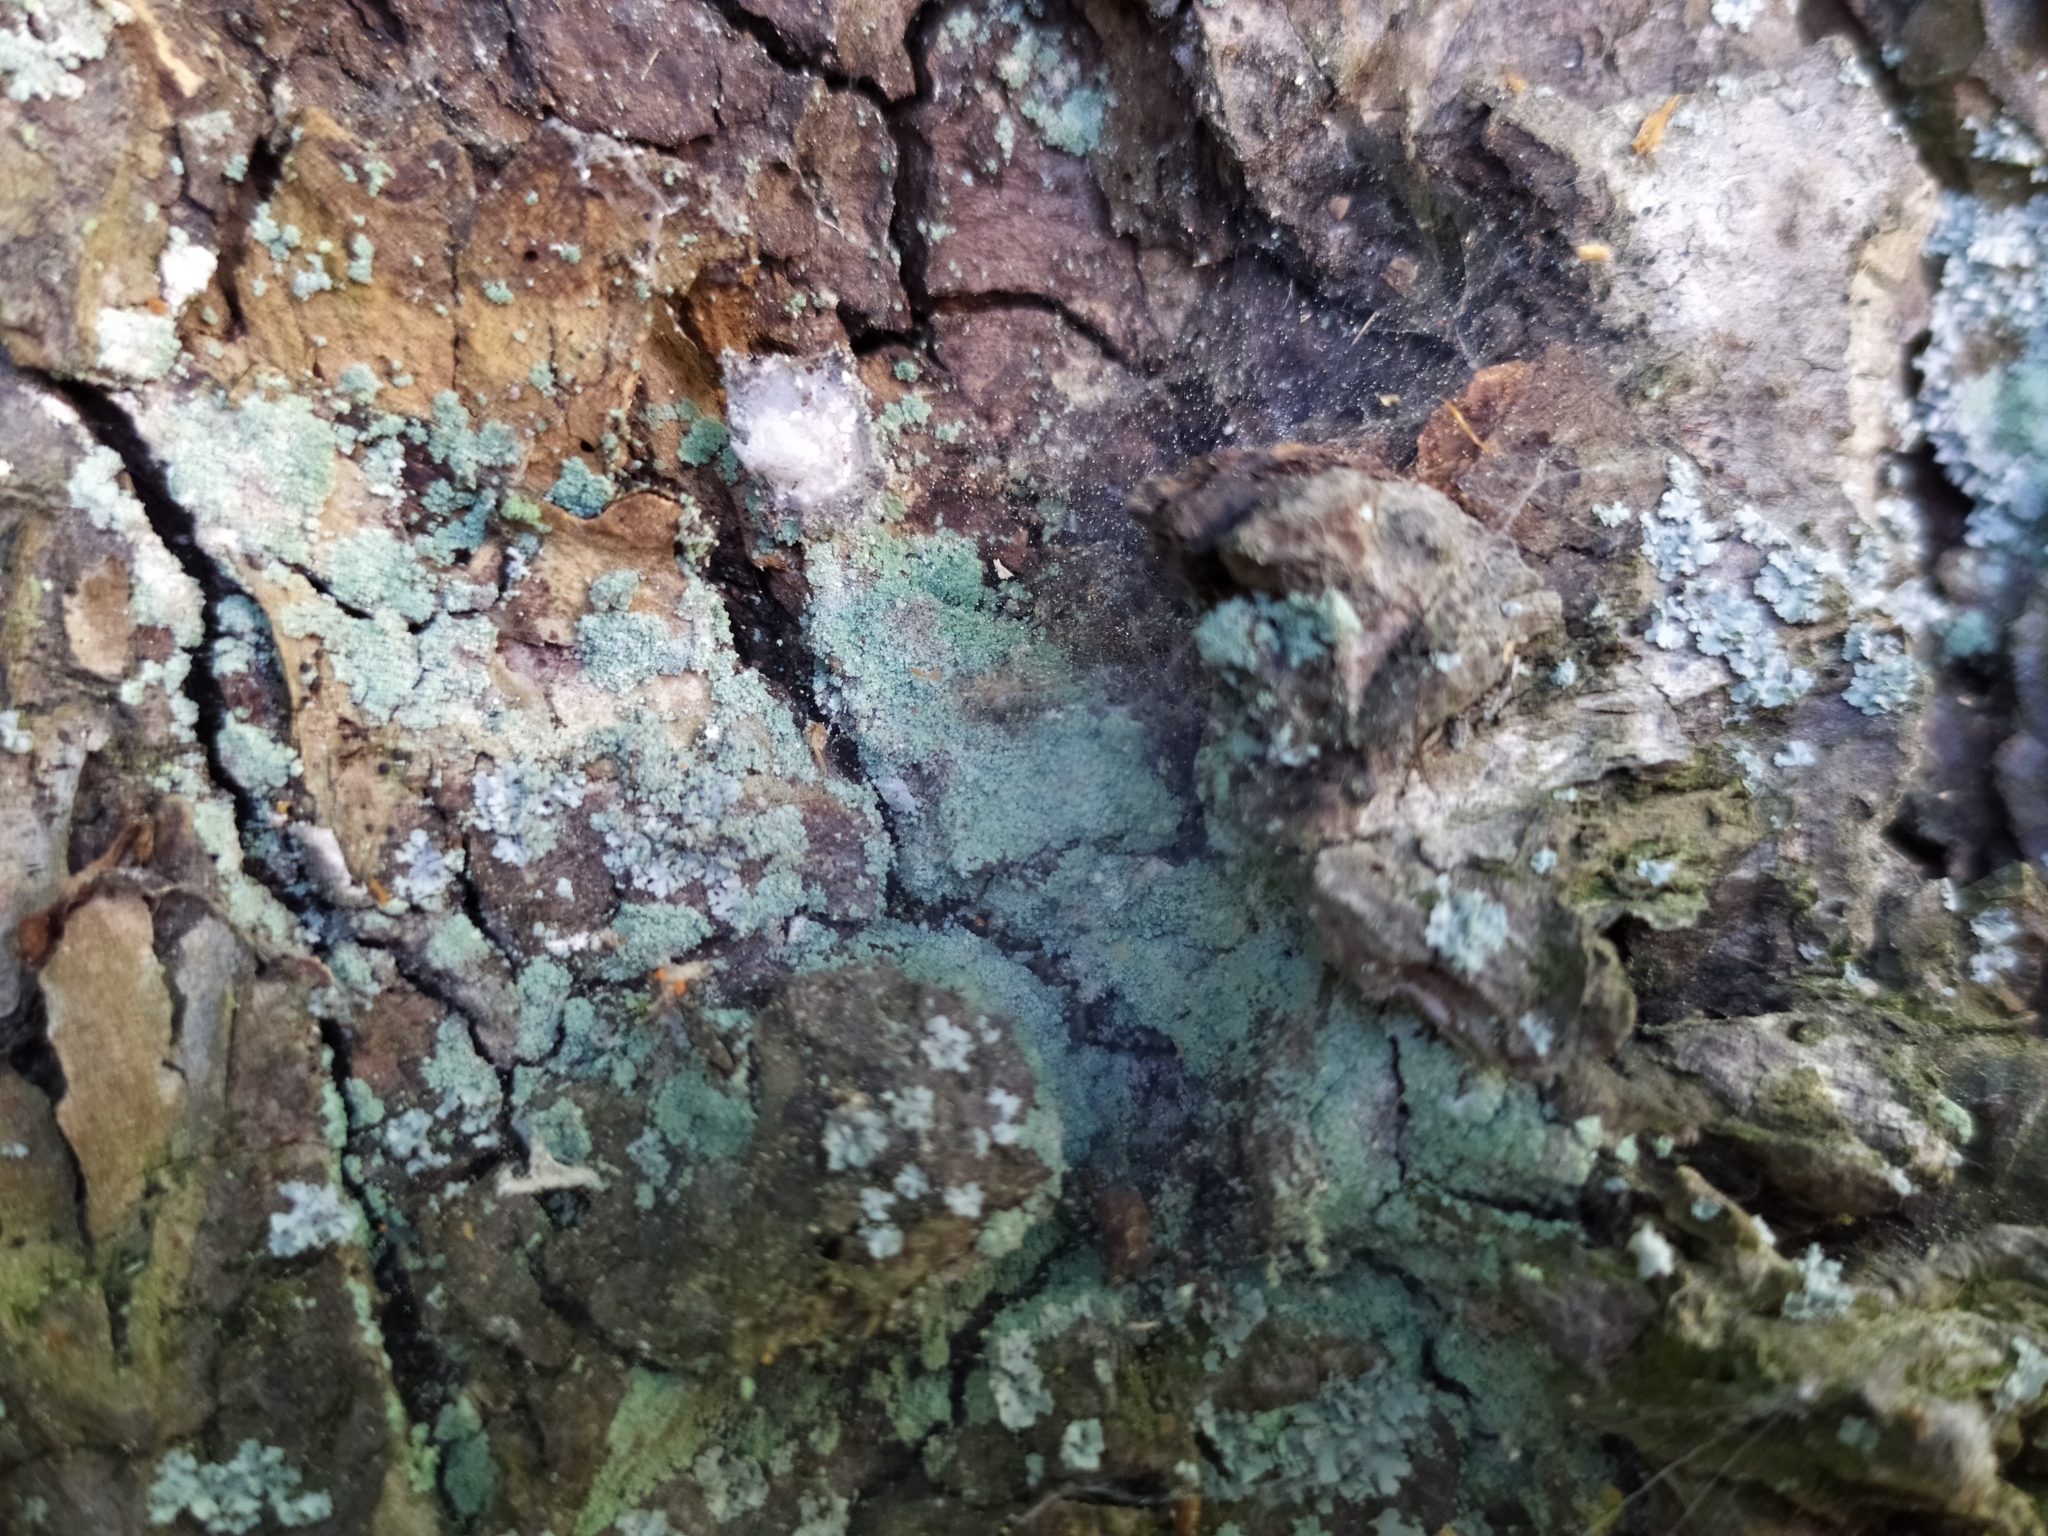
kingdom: Fungi
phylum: Ascomycota
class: Lecanoromycetes
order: Lecanorales
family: Stereocaulaceae
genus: Lepraria
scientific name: Lepraria
